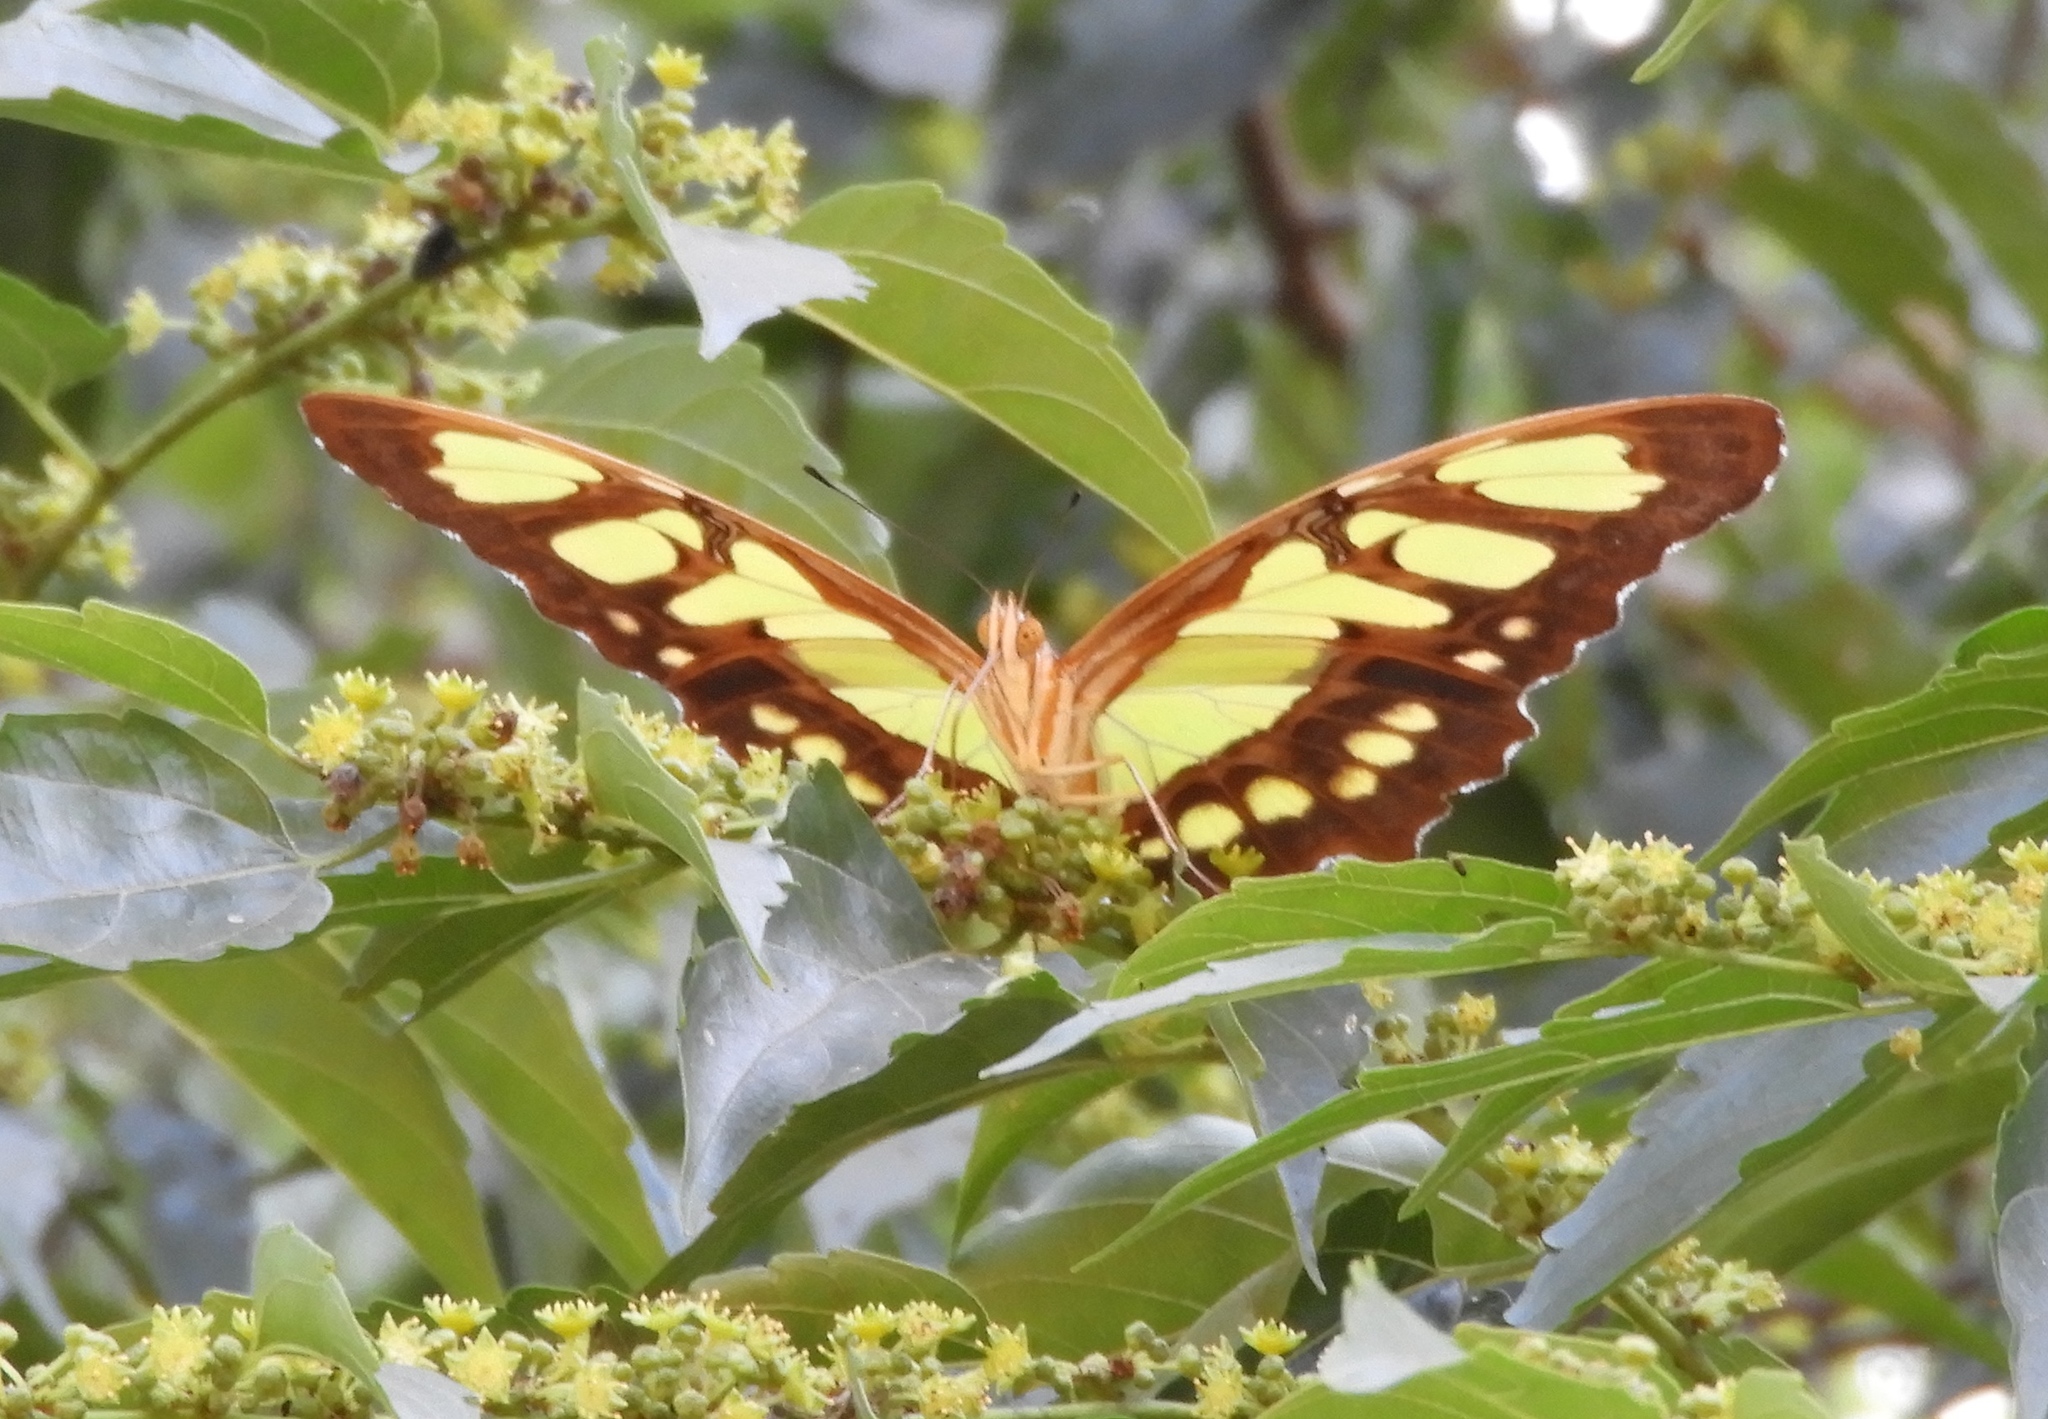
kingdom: Animalia
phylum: Arthropoda
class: Insecta
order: Lepidoptera
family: Nymphalidae
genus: Siproeta
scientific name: Siproeta stelenes
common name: Malachite
